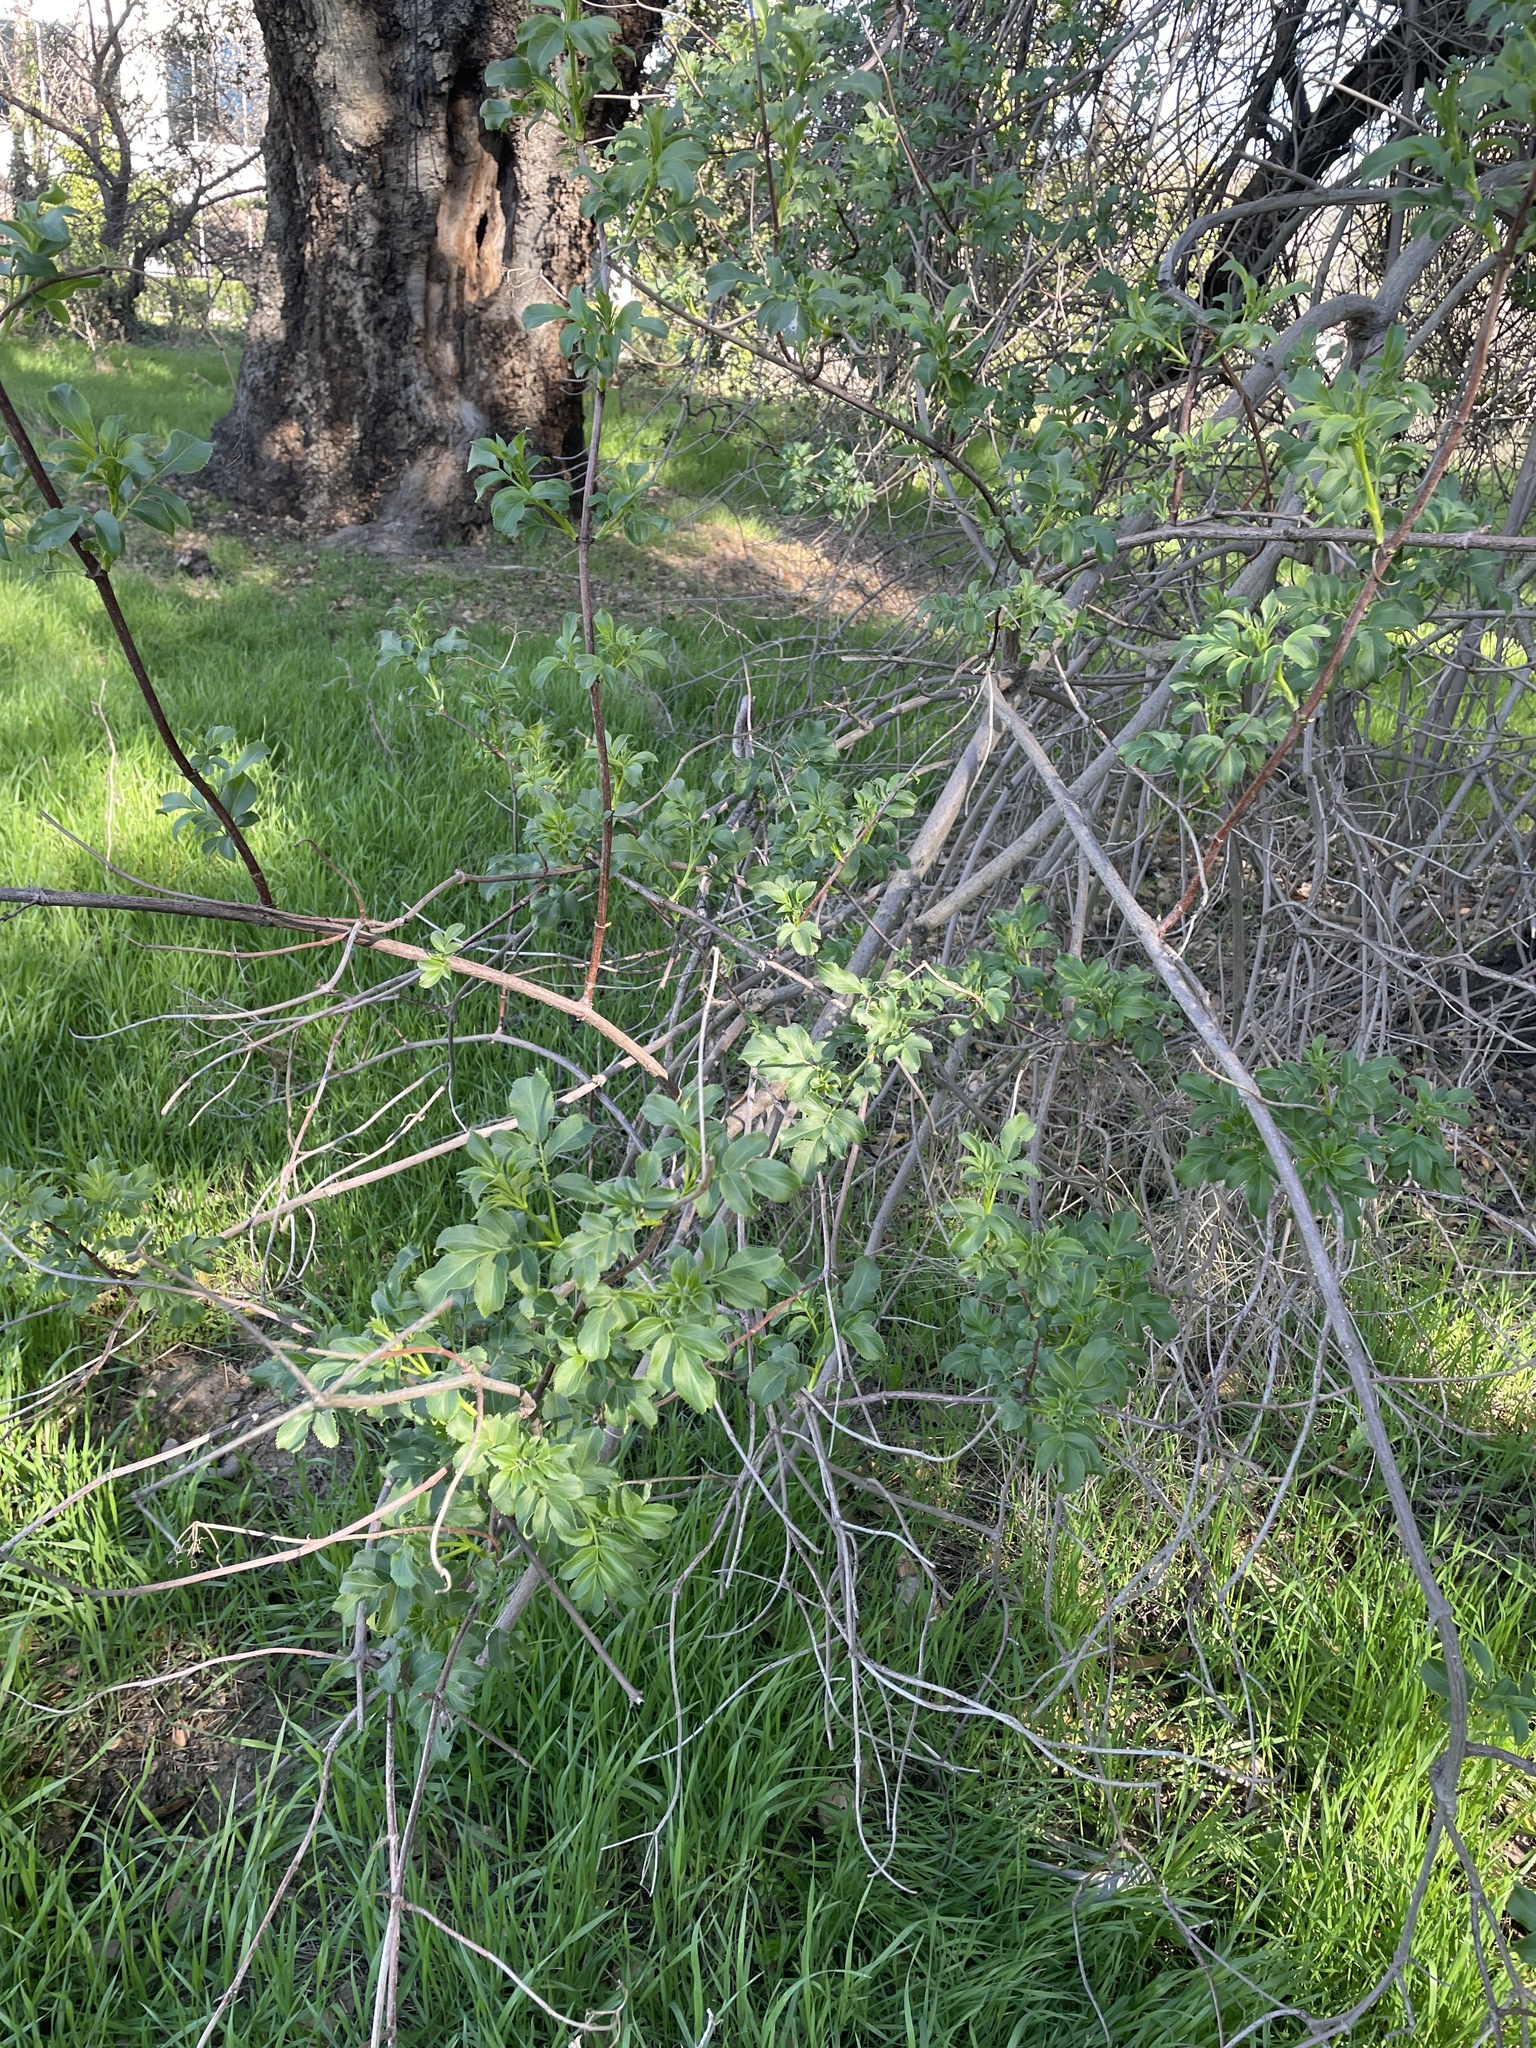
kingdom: Plantae
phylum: Tracheophyta
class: Magnoliopsida
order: Dipsacales
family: Viburnaceae
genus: Sambucus
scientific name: Sambucus cerulea
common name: Blue elder
